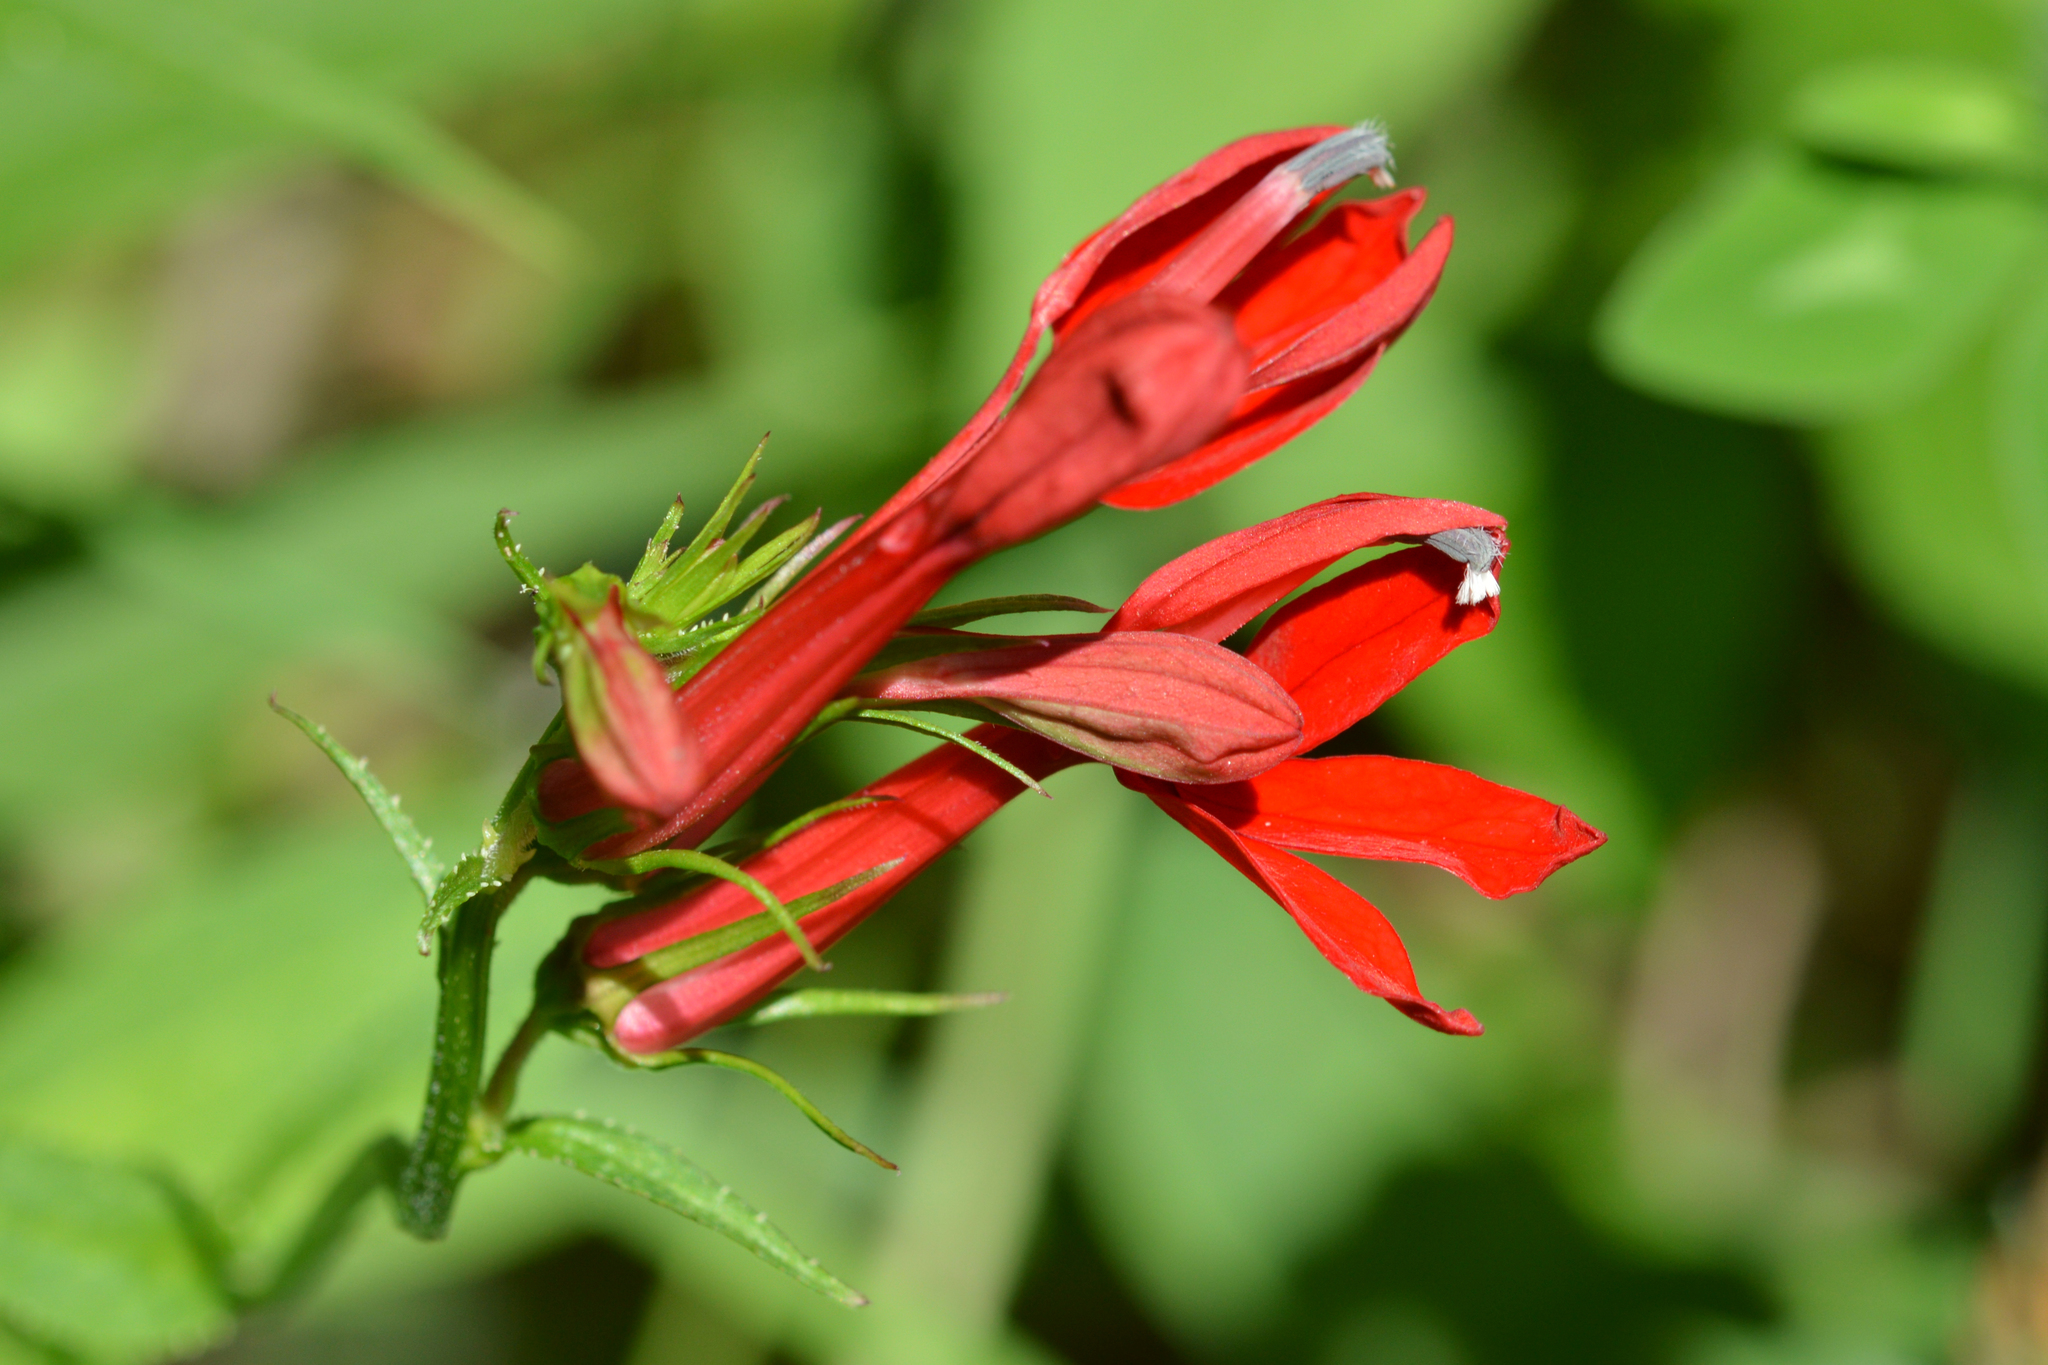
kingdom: Plantae
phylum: Tracheophyta
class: Magnoliopsida
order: Asterales
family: Campanulaceae
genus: Lobelia
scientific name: Lobelia cardinalis
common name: Cardinal flower
